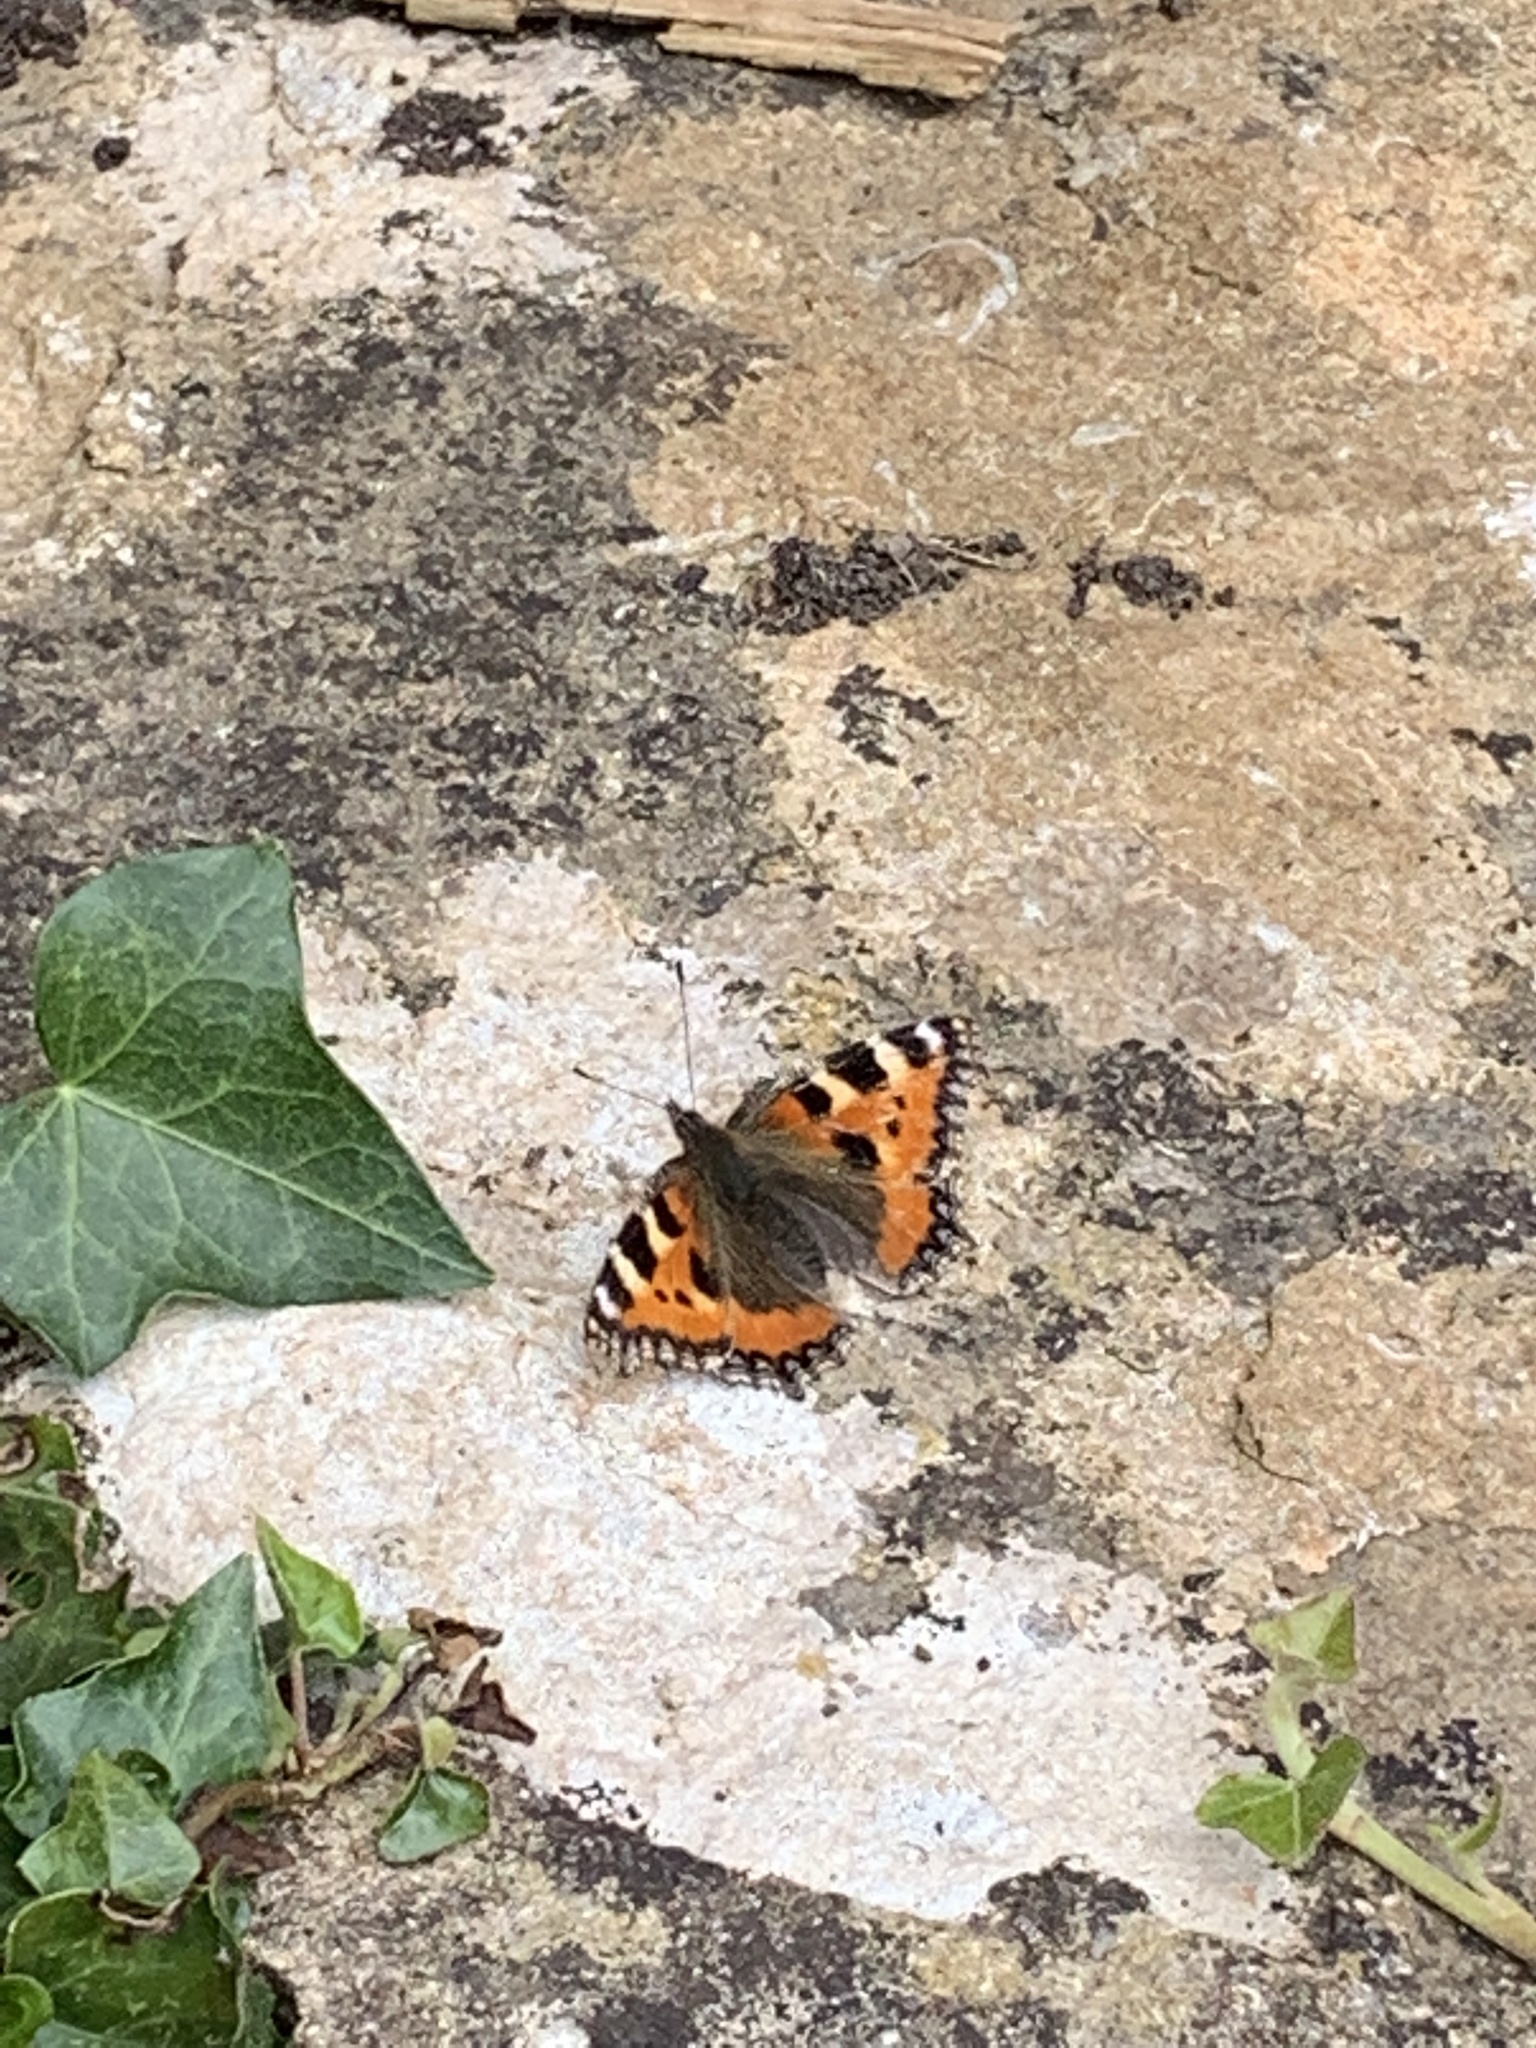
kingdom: Animalia
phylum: Arthropoda
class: Insecta
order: Lepidoptera
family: Nymphalidae
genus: Aglais
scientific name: Aglais urticae
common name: Small tortoiseshell
